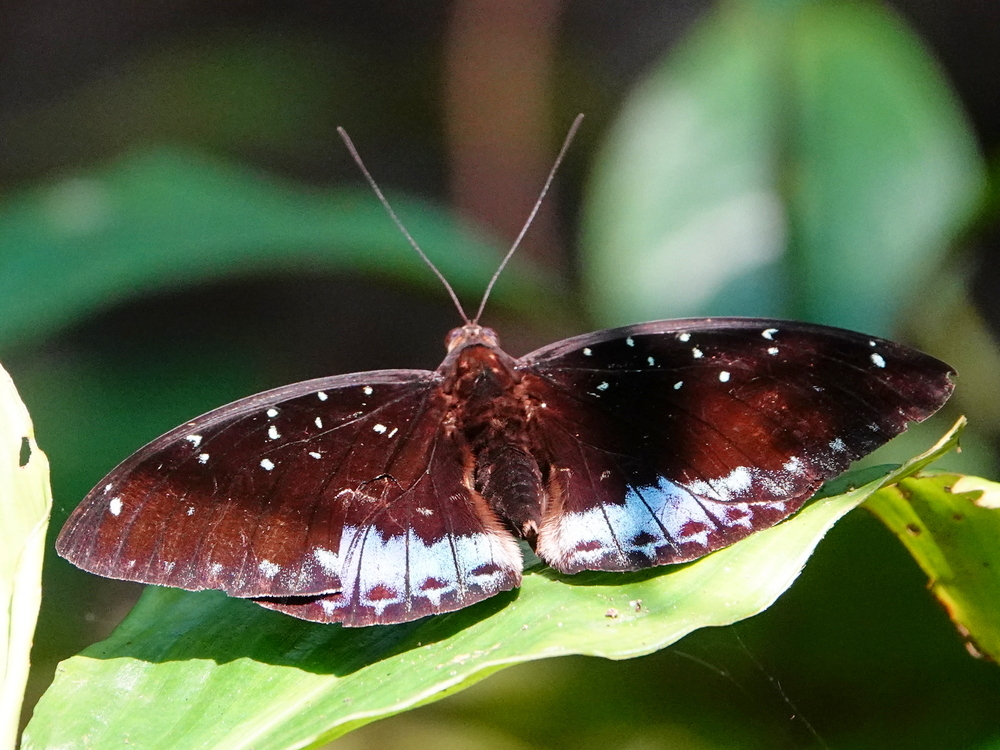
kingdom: Animalia
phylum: Arthropoda
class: Insecta
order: Lepidoptera
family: Nymphalidae
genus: Lexias
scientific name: Lexias
